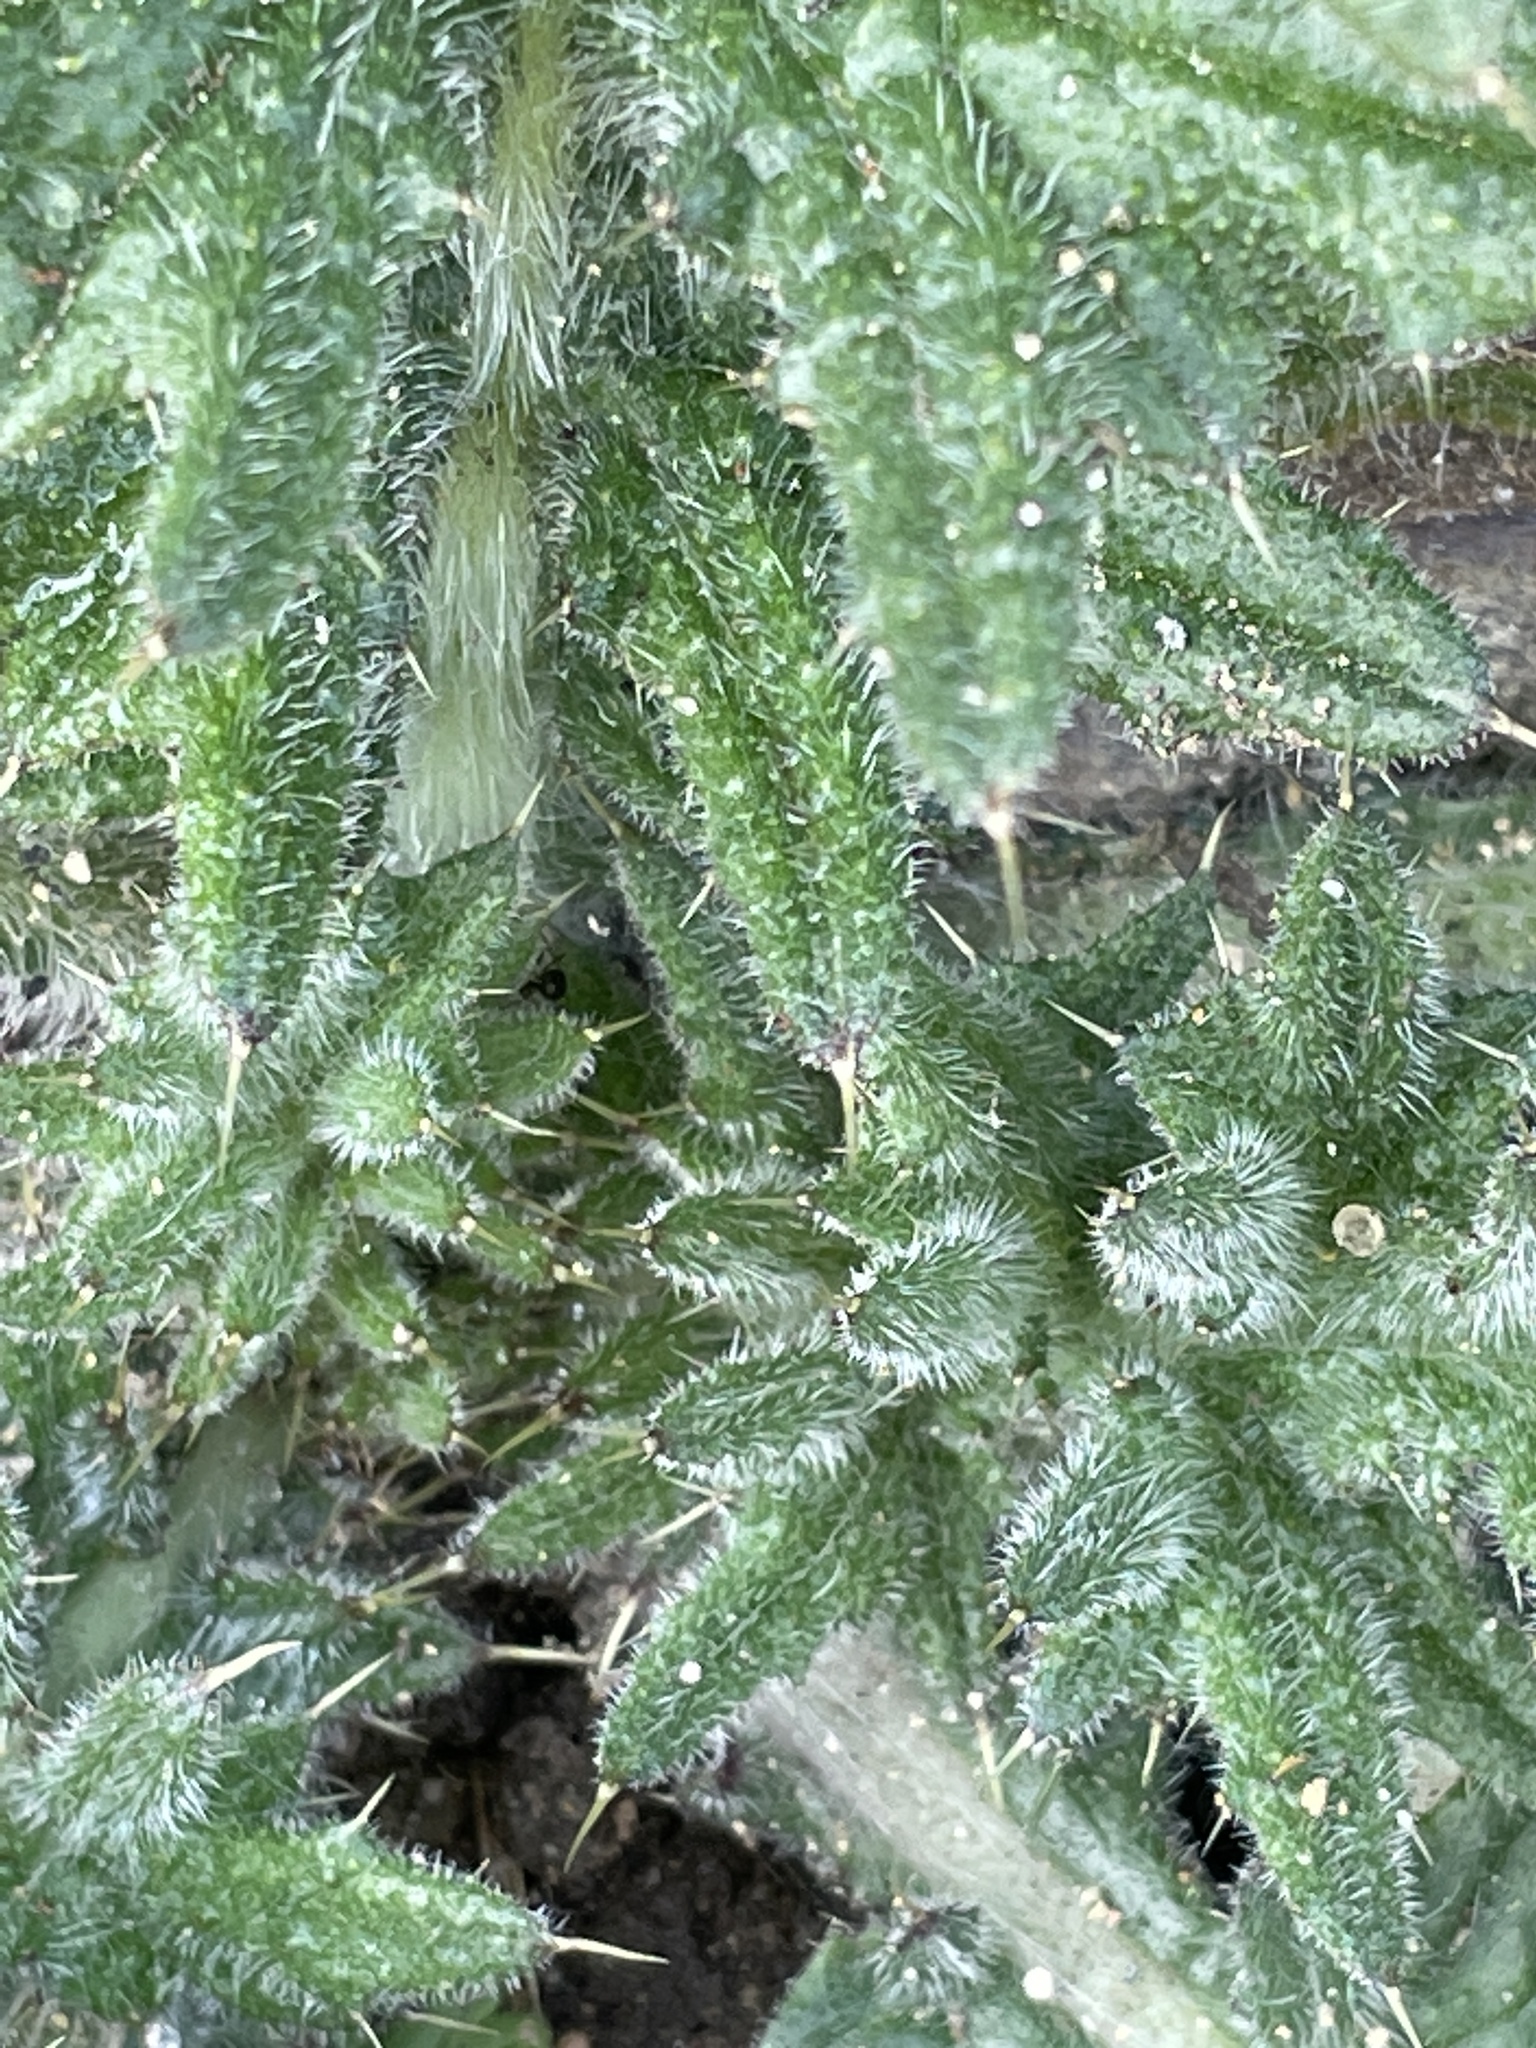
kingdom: Plantae
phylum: Tracheophyta
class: Magnoliopsida
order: Asterales
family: Asteraceae
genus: Cirsium
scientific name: Cirsium vulgare
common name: Bull thistle
